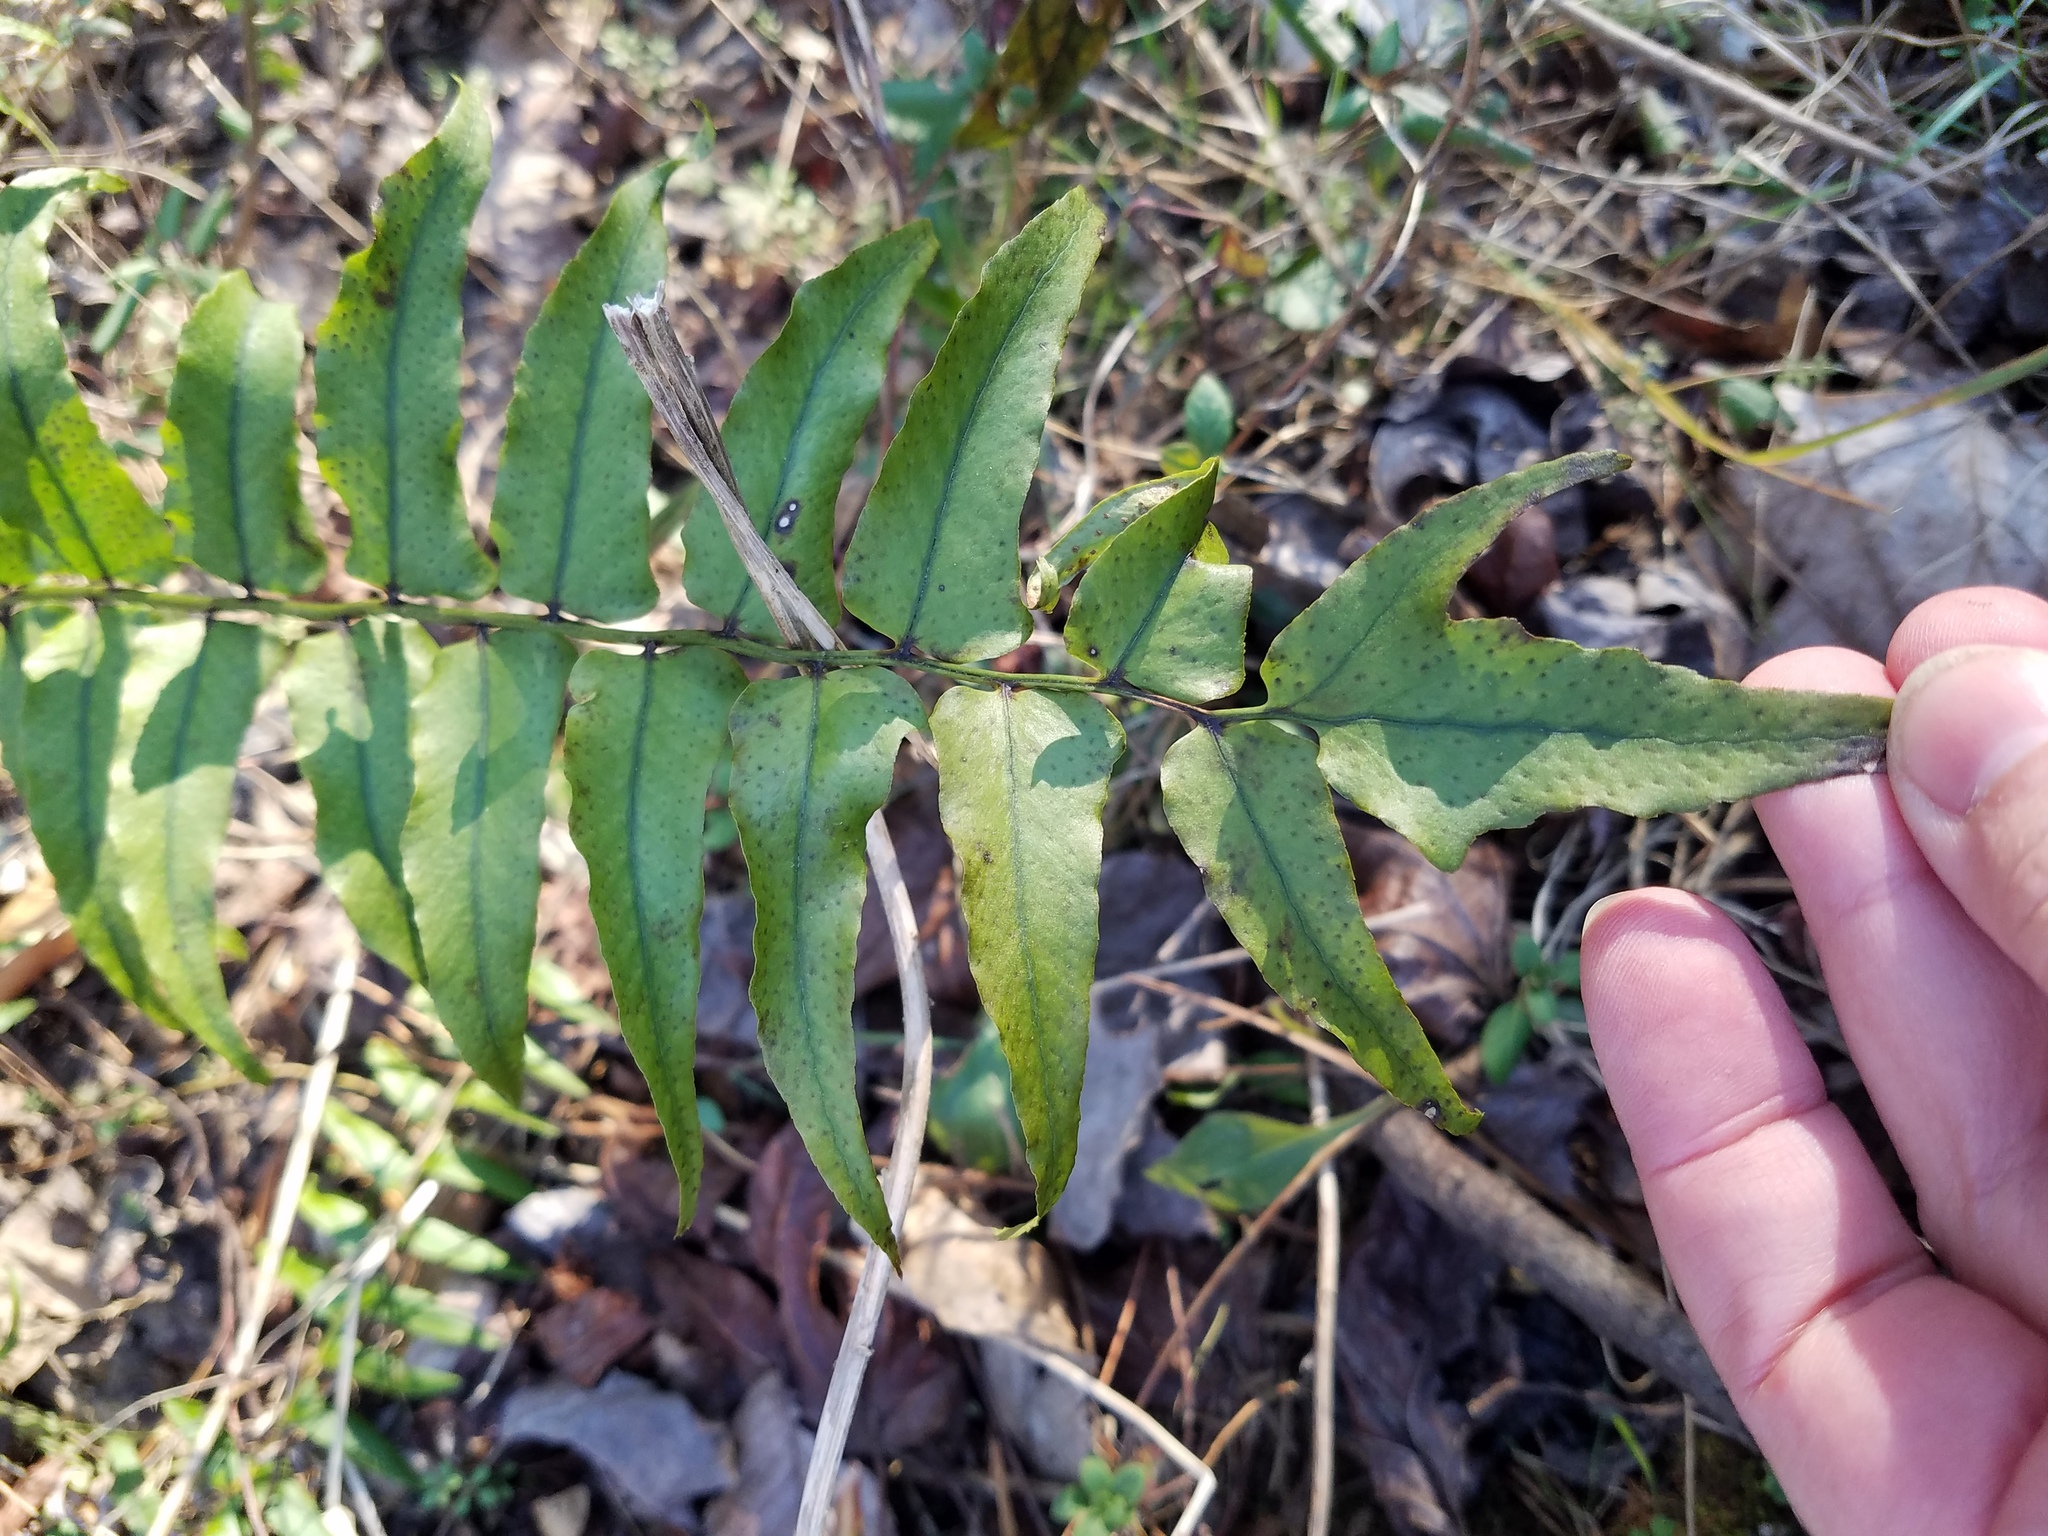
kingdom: Plantae
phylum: Tracheophyta
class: Polypodiopsida
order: Polypodiales
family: Dryopteridaceae
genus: Cyrtomium
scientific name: Cyrtomium fortunei
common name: Asian netvein hollyfern
